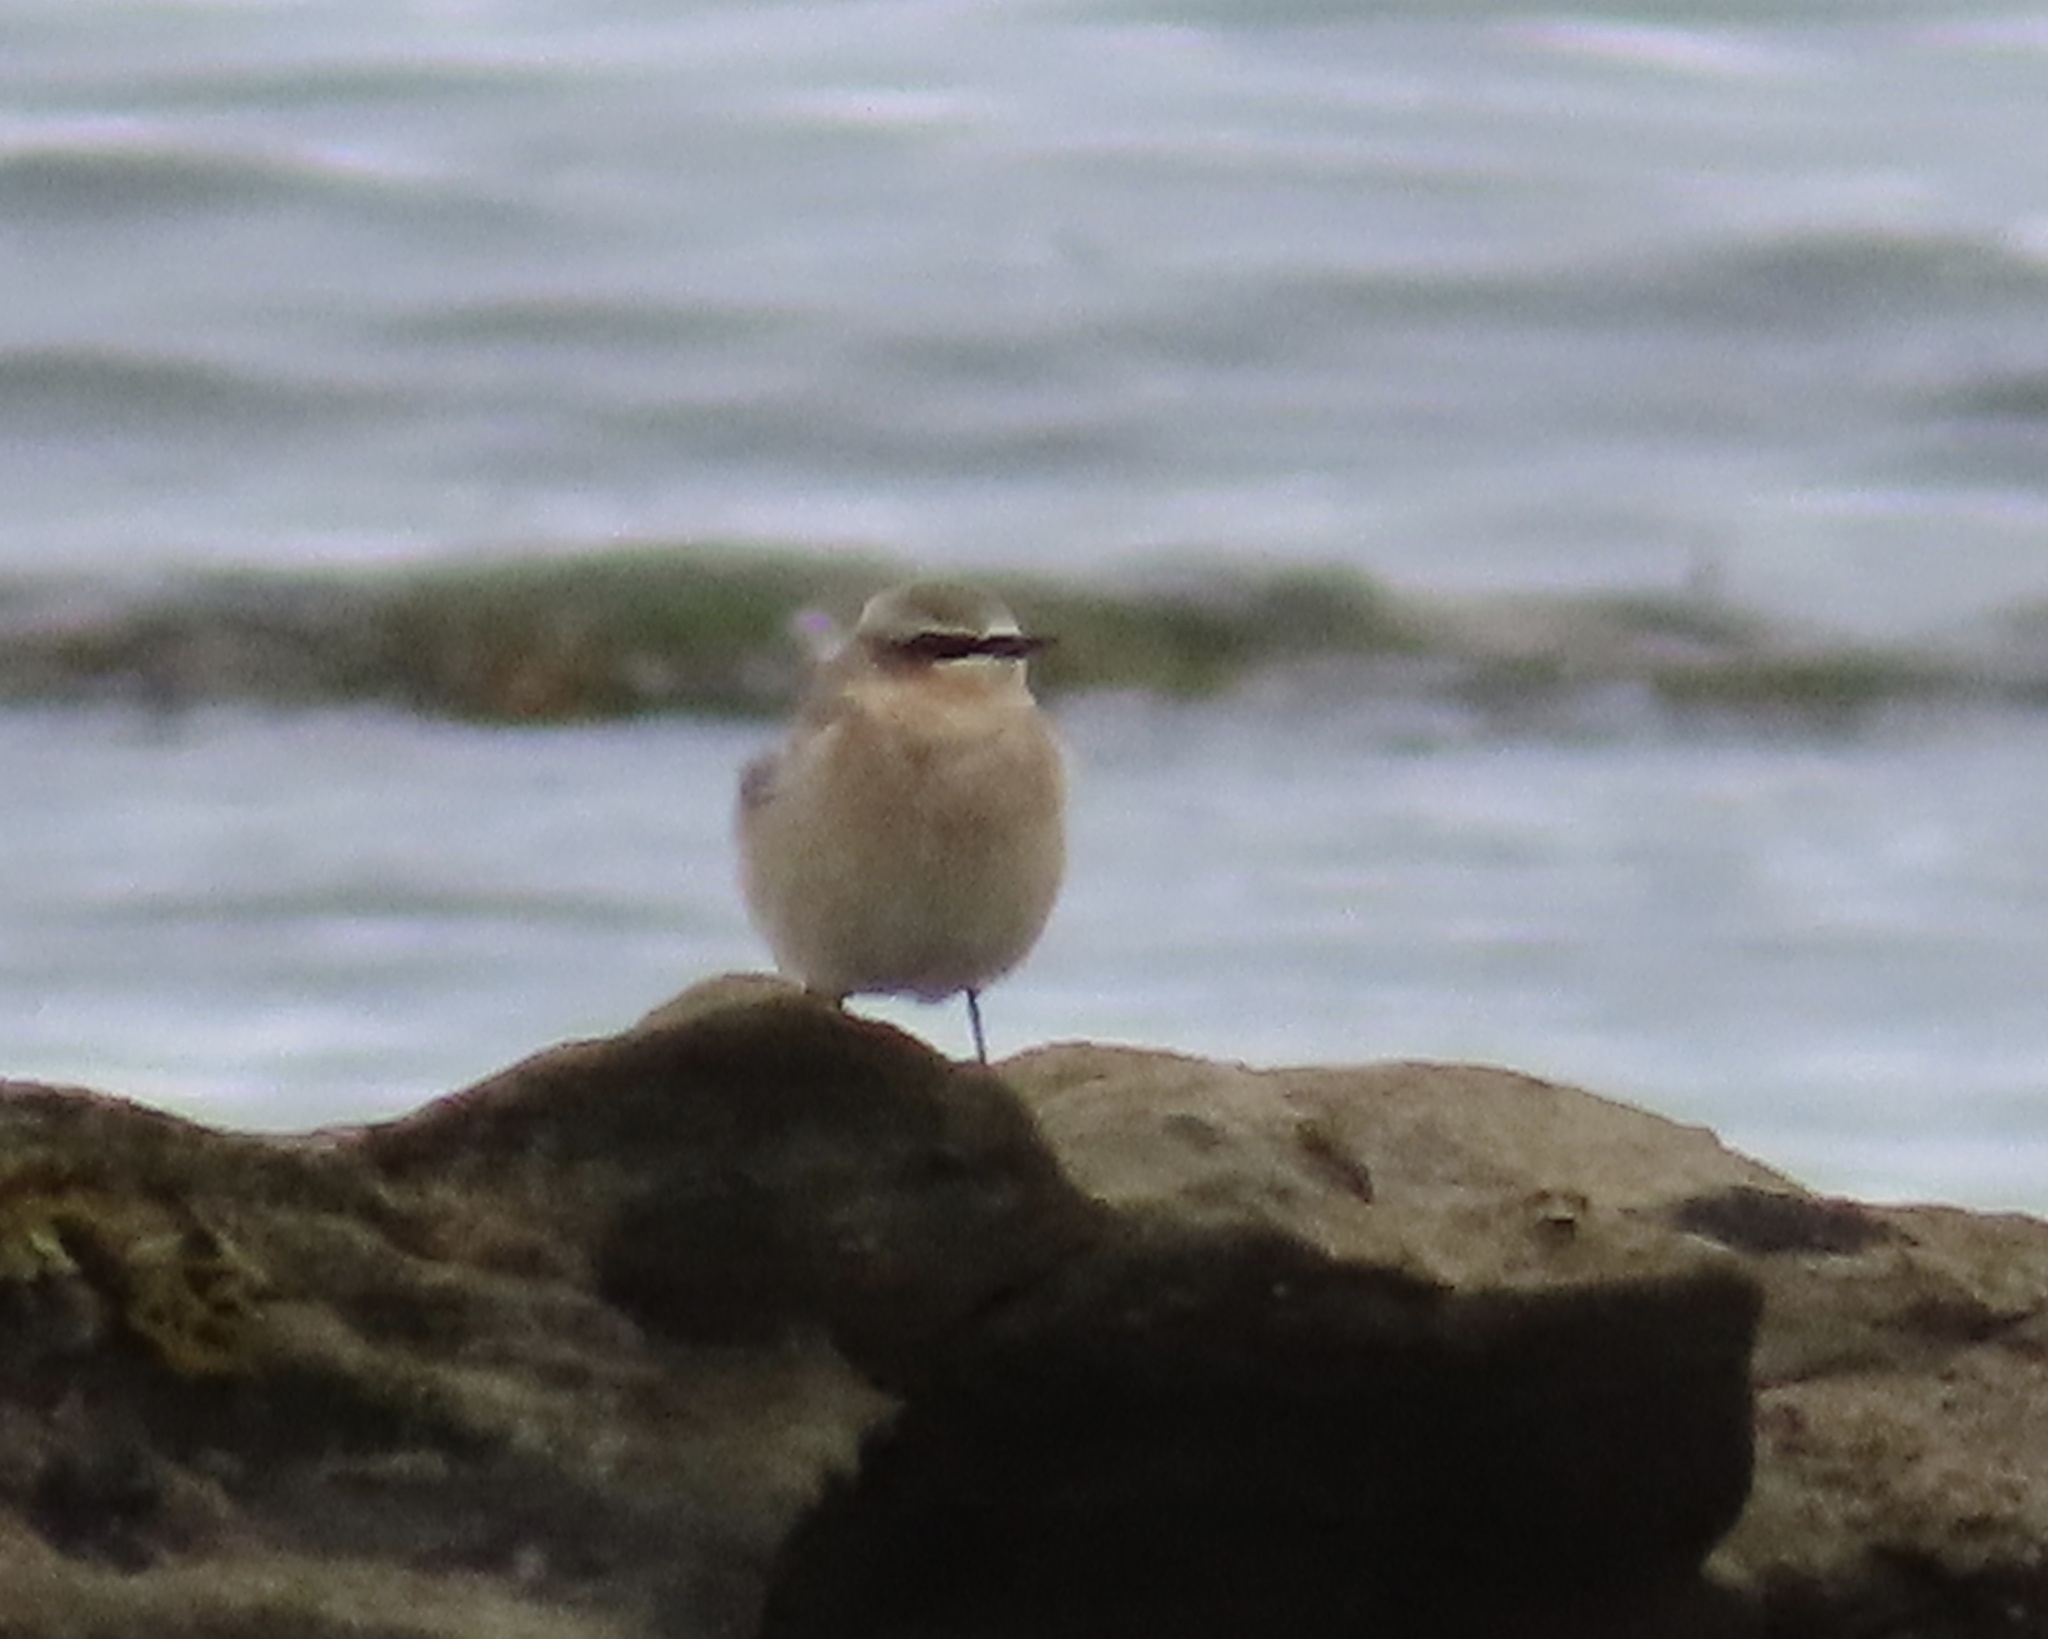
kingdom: Animalia
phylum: Chordata
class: Aves
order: Passeriformes
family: Muscicapidae
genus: Oenanthe
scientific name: Oenanthe oenanthe
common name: Northern wheatear
